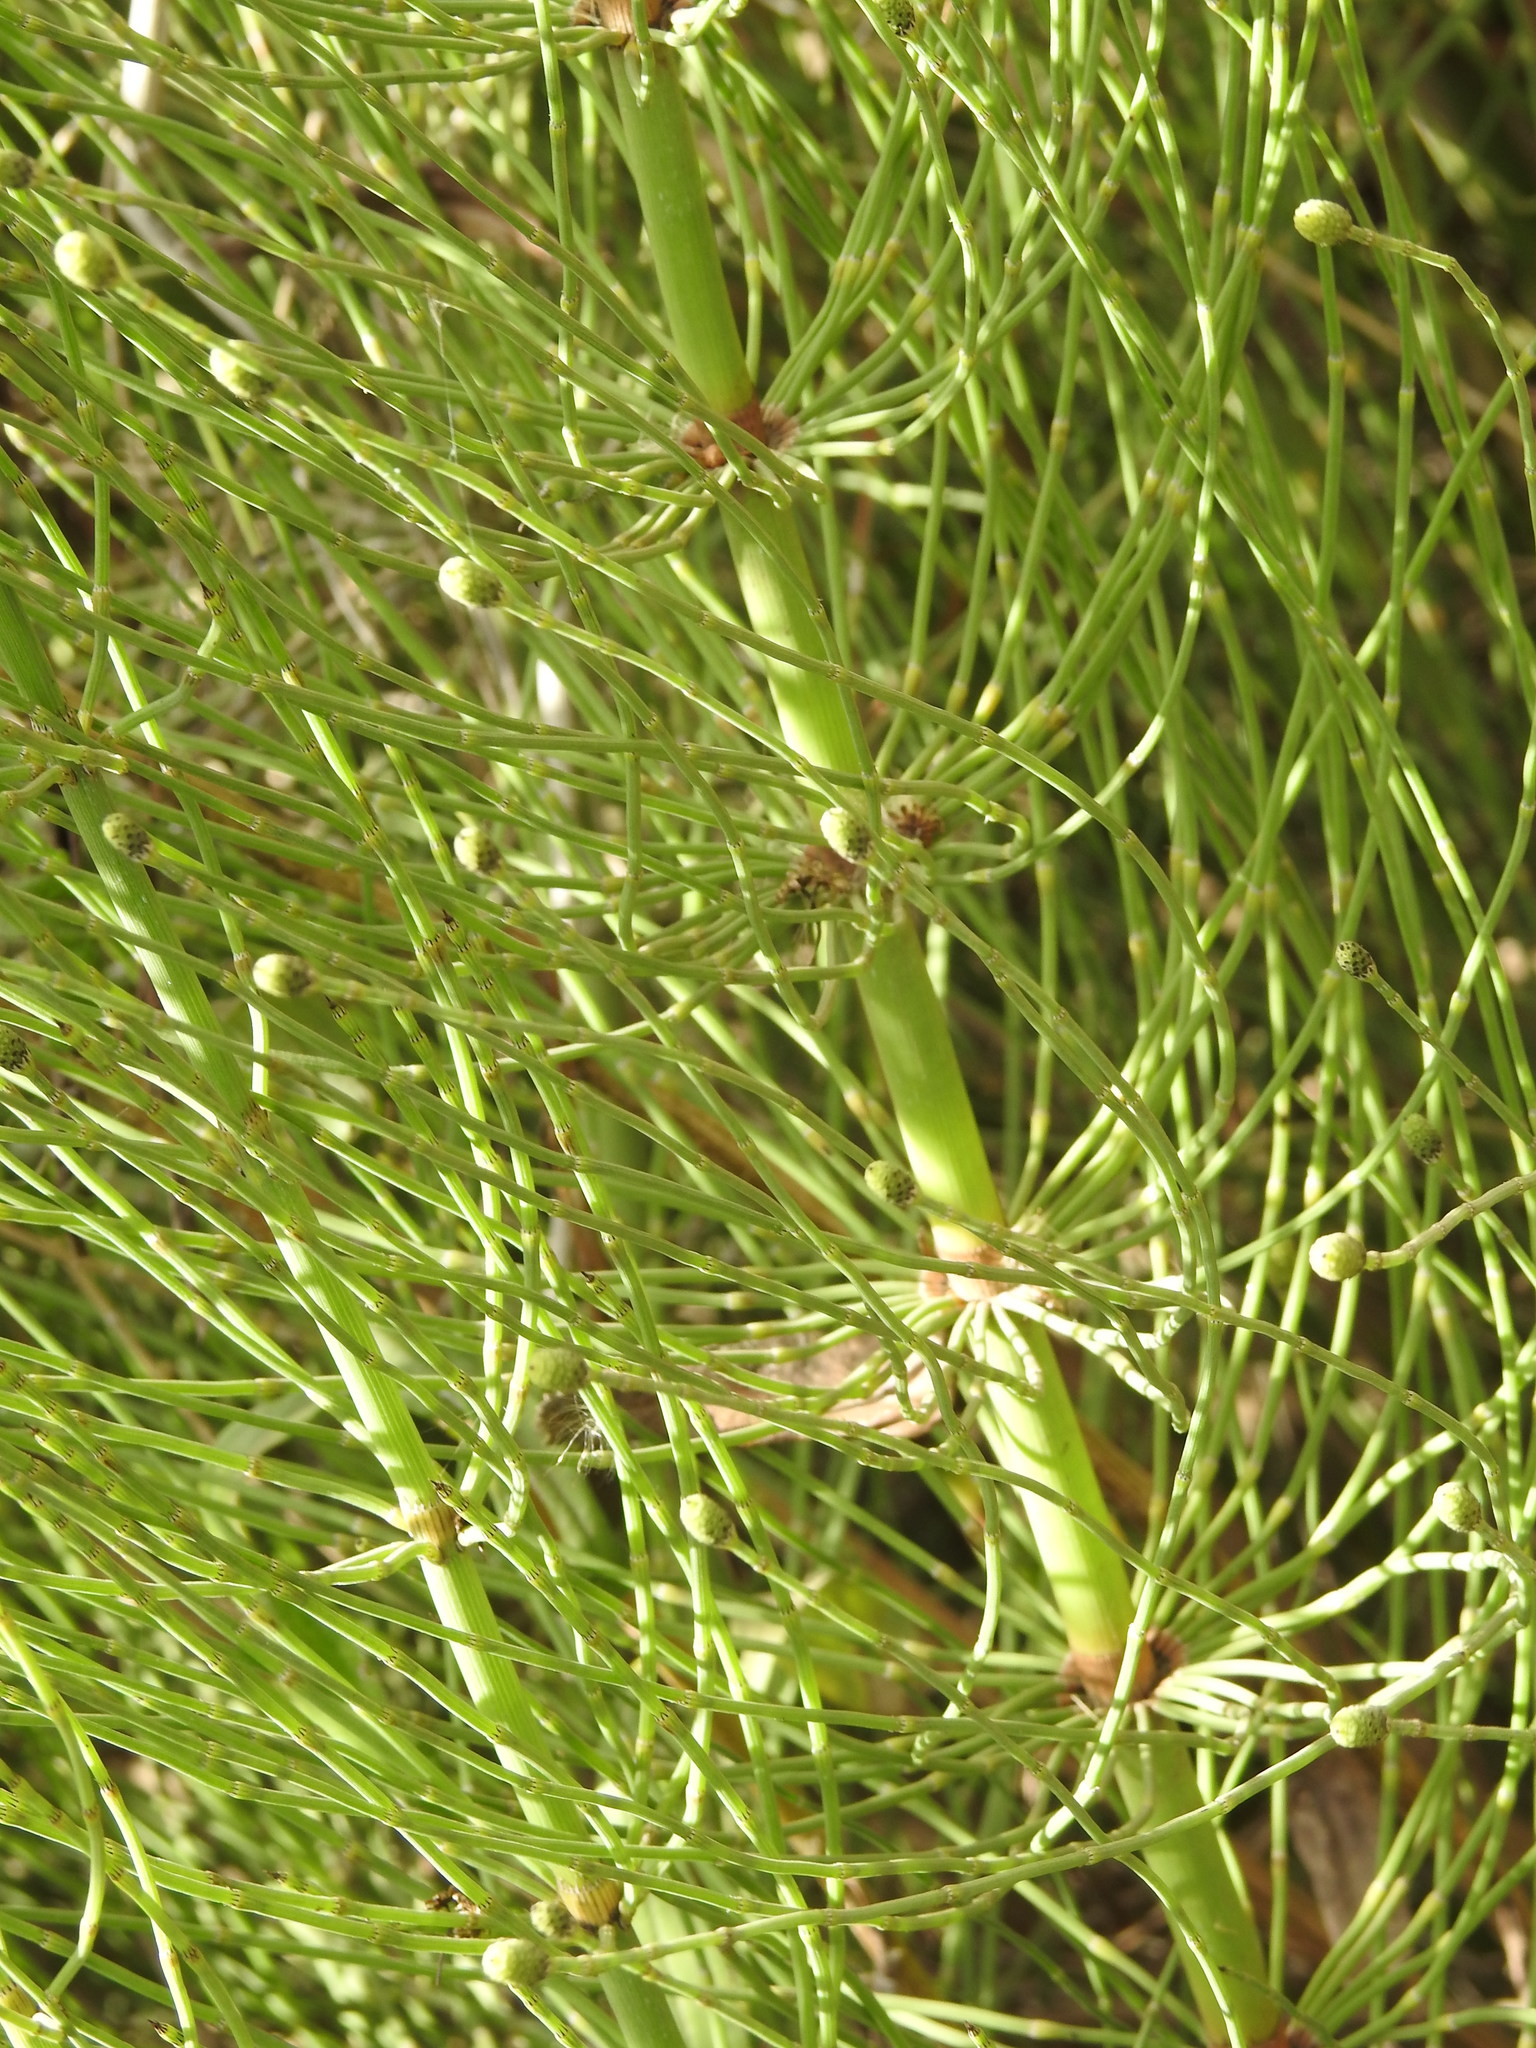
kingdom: Plantae
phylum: Tracheophyta
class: Polypodiopsida
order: Equisetales
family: Equisetaceae
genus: Equisetum
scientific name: Equisetum giganteum
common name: Giant horsetail
